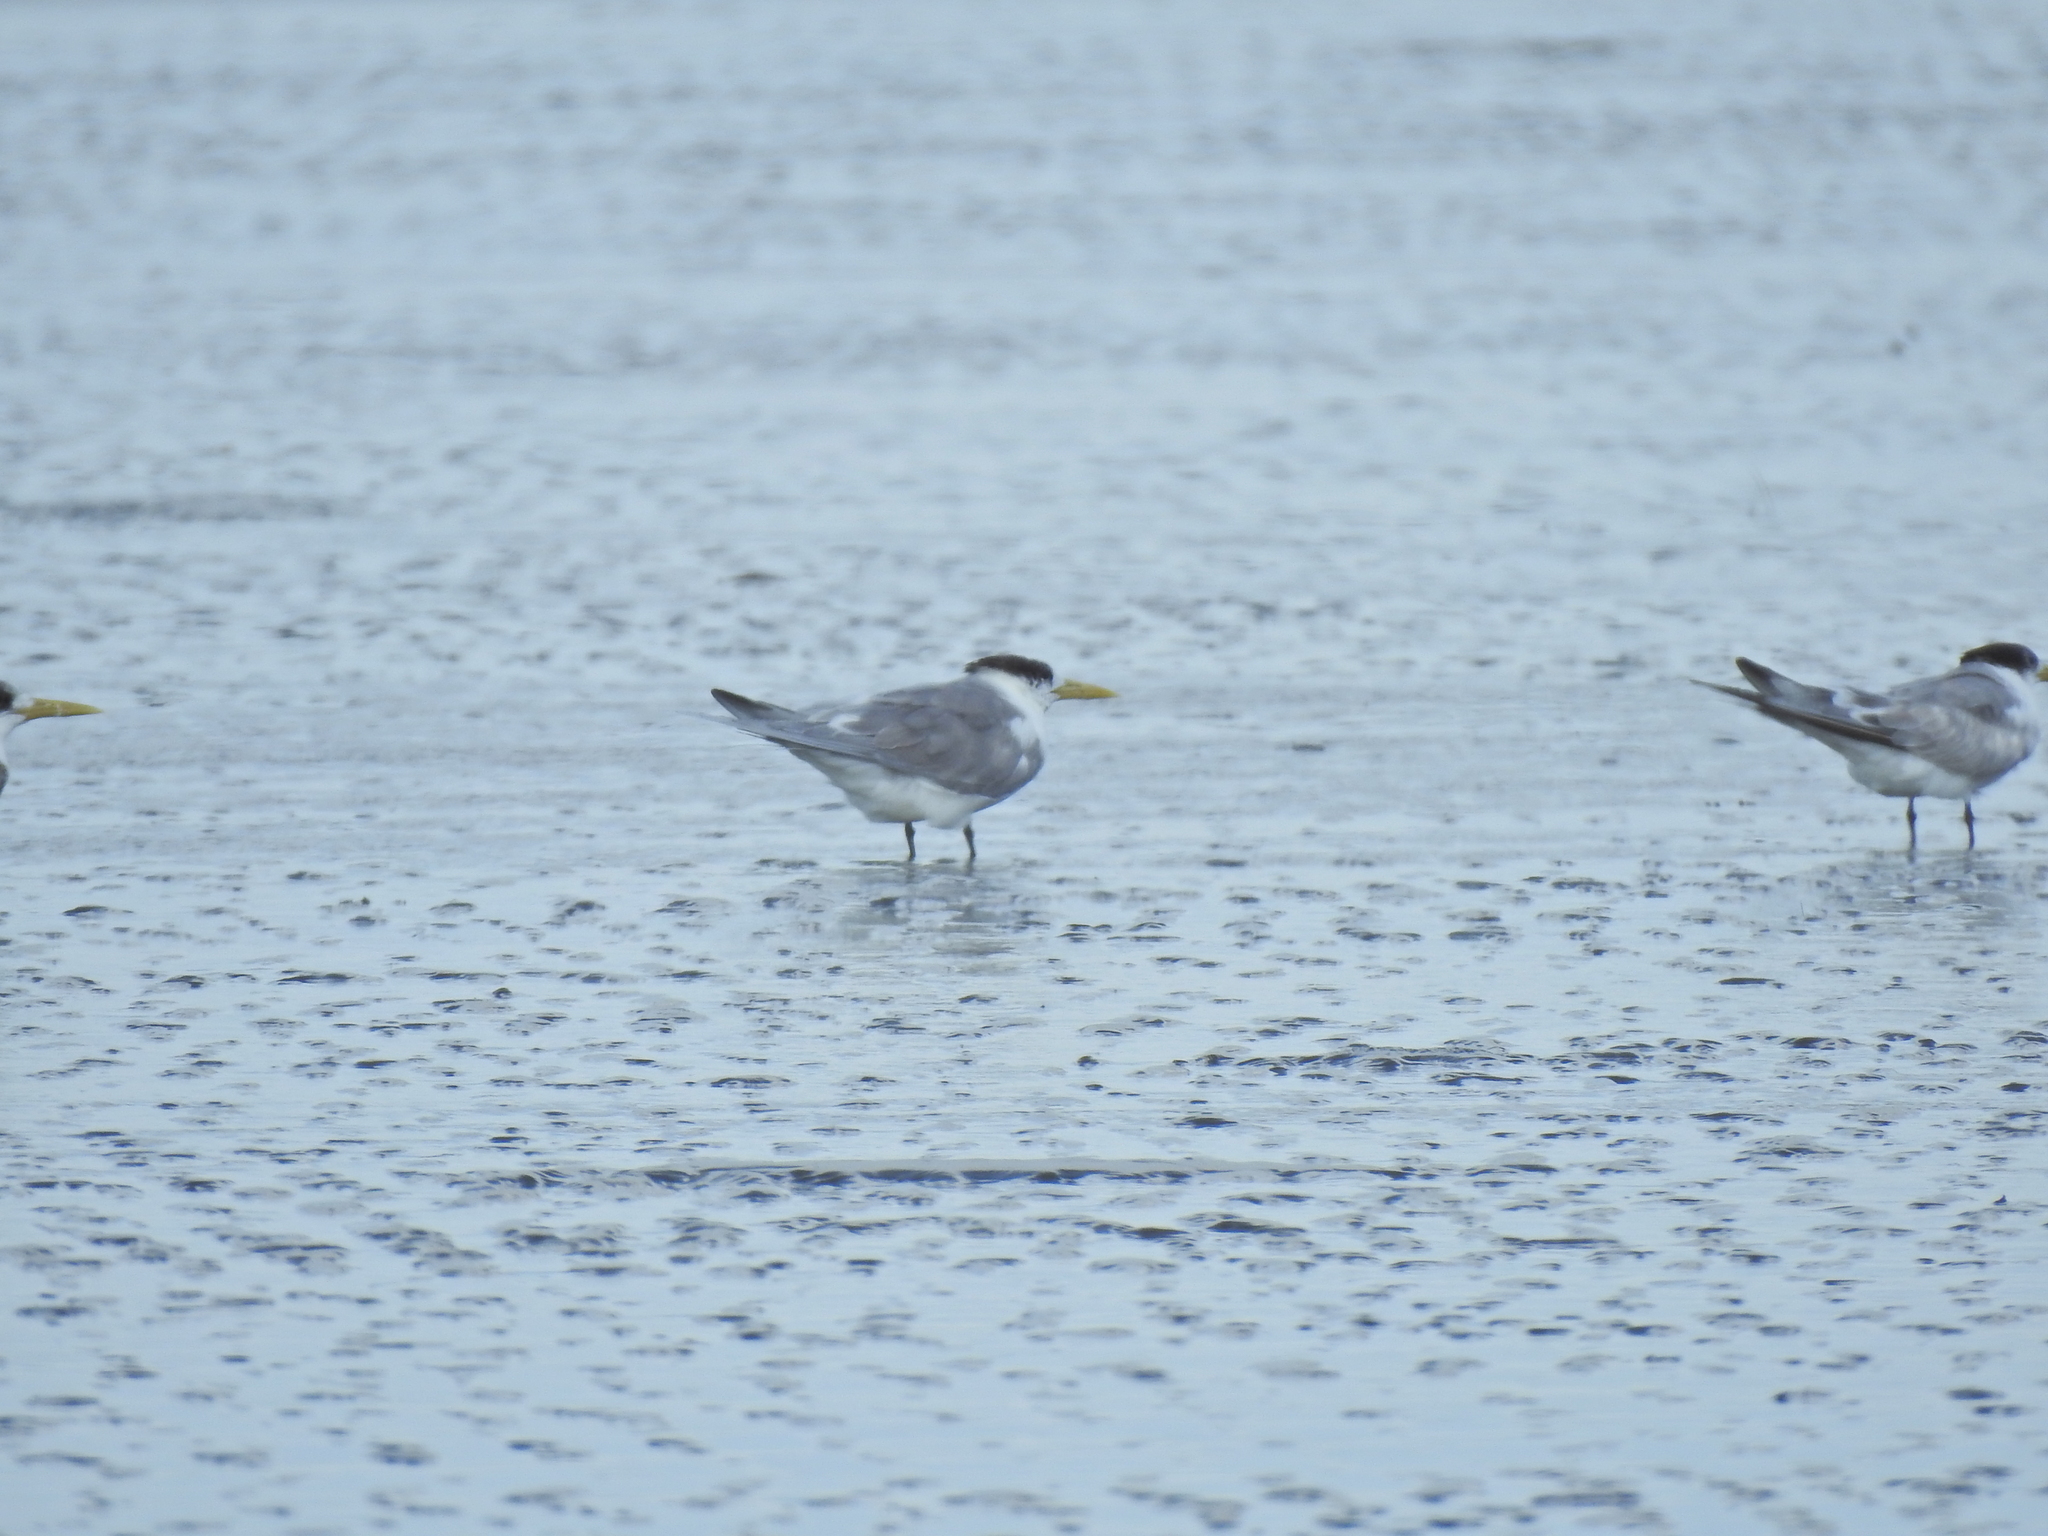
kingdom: Animalia
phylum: Chordata
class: Aves
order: Charadriiformes
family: Laridae
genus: Thalasseus
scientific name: Thalasseus bergii
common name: Greater crested tern
